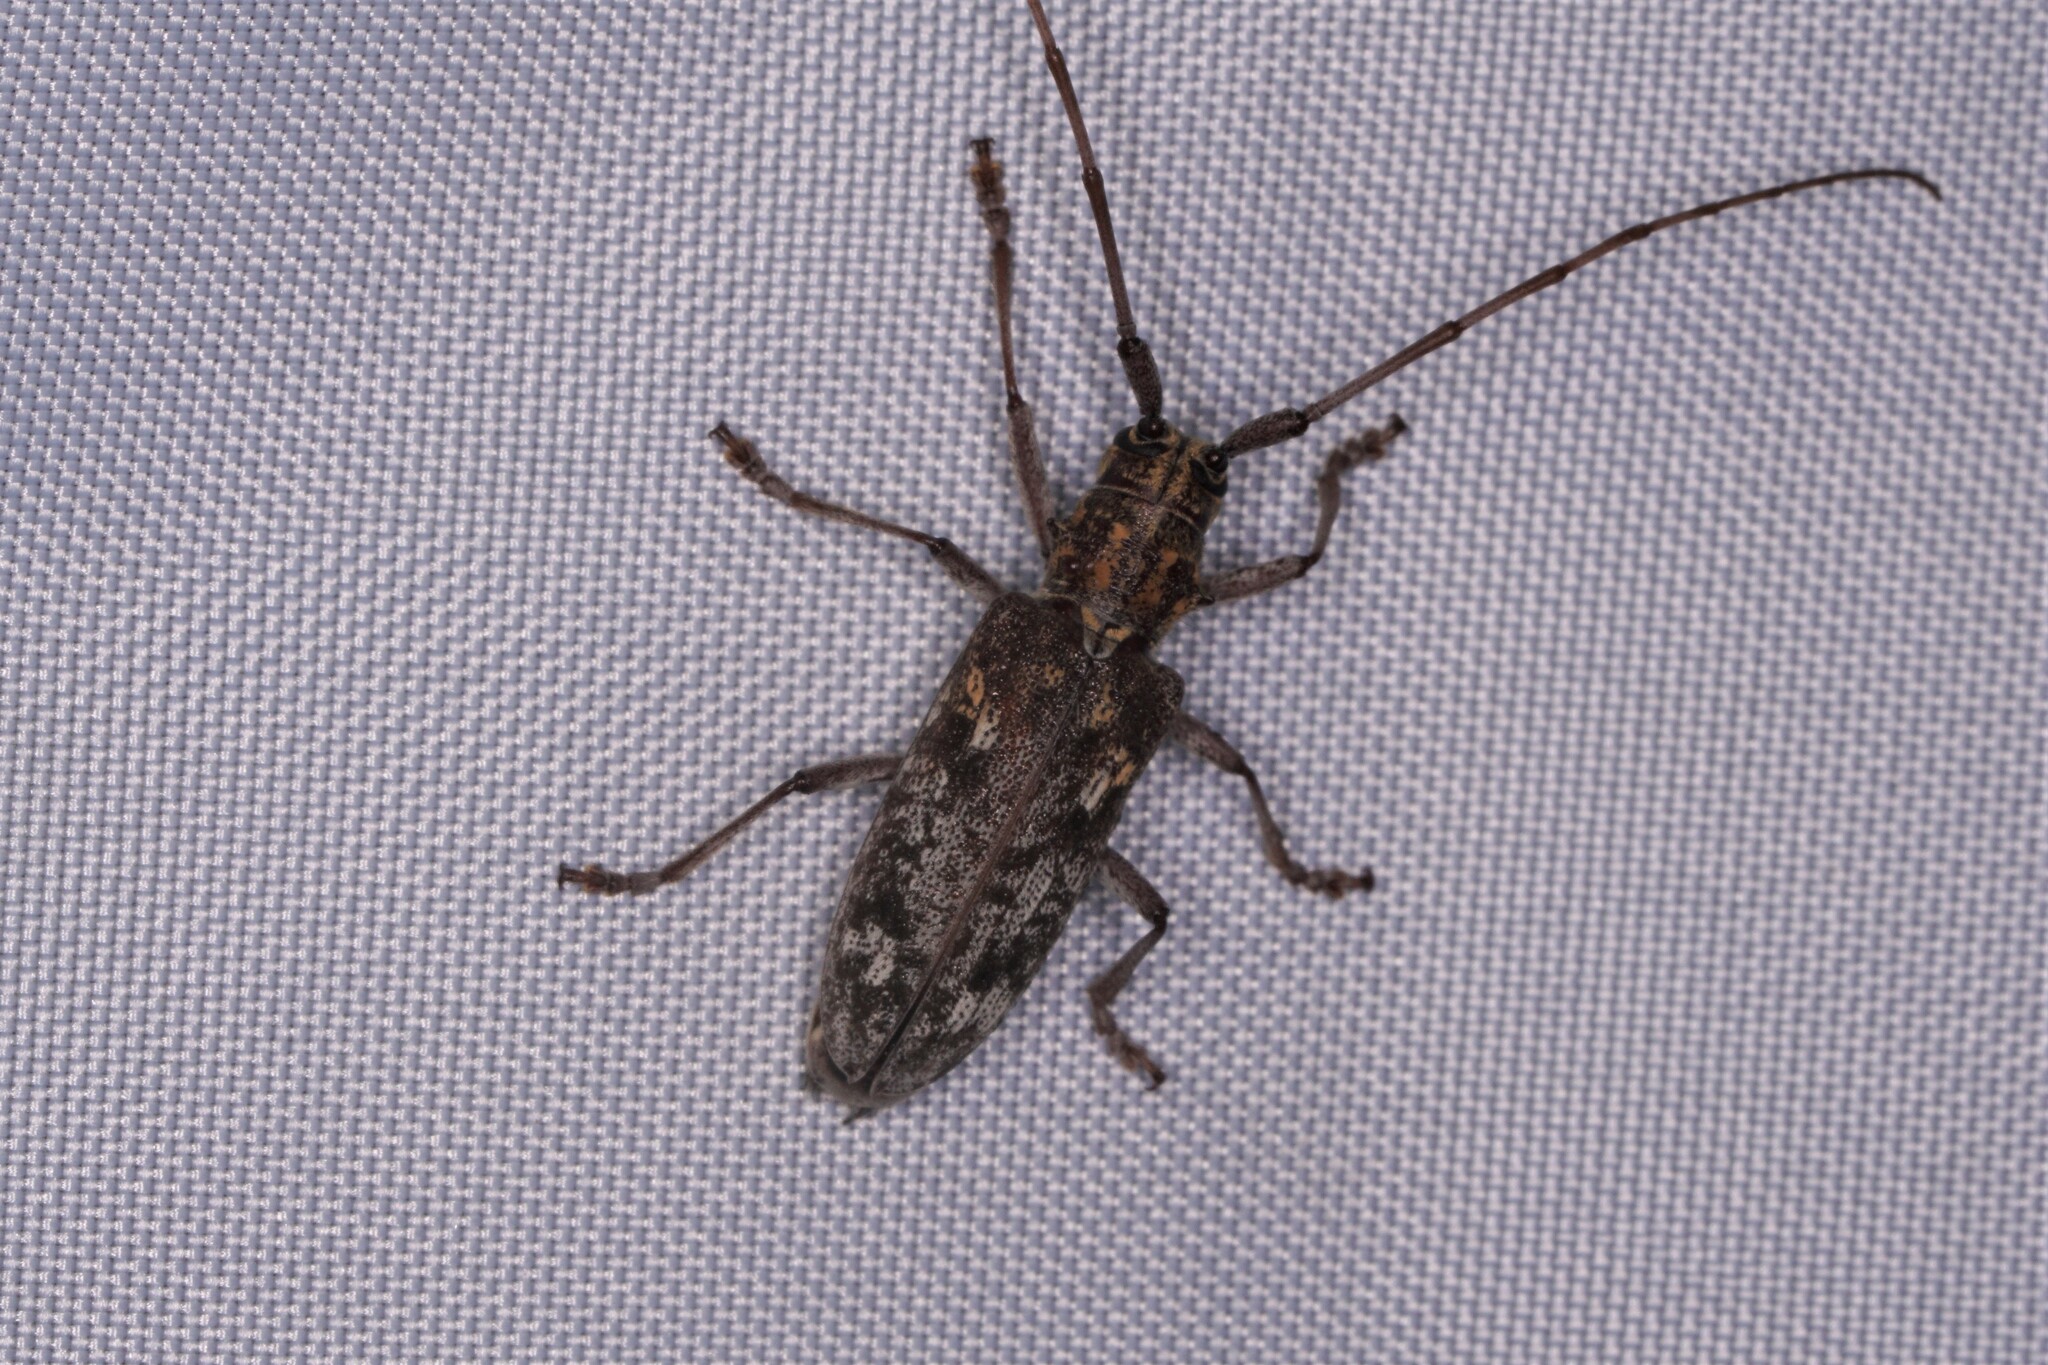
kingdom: Animalia
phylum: Arthropoda
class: Insecta
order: Coleoptera
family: Cerambycidae
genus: Monochamus
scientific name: Monochamus carolinensis
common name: Carolina pine sawyer
